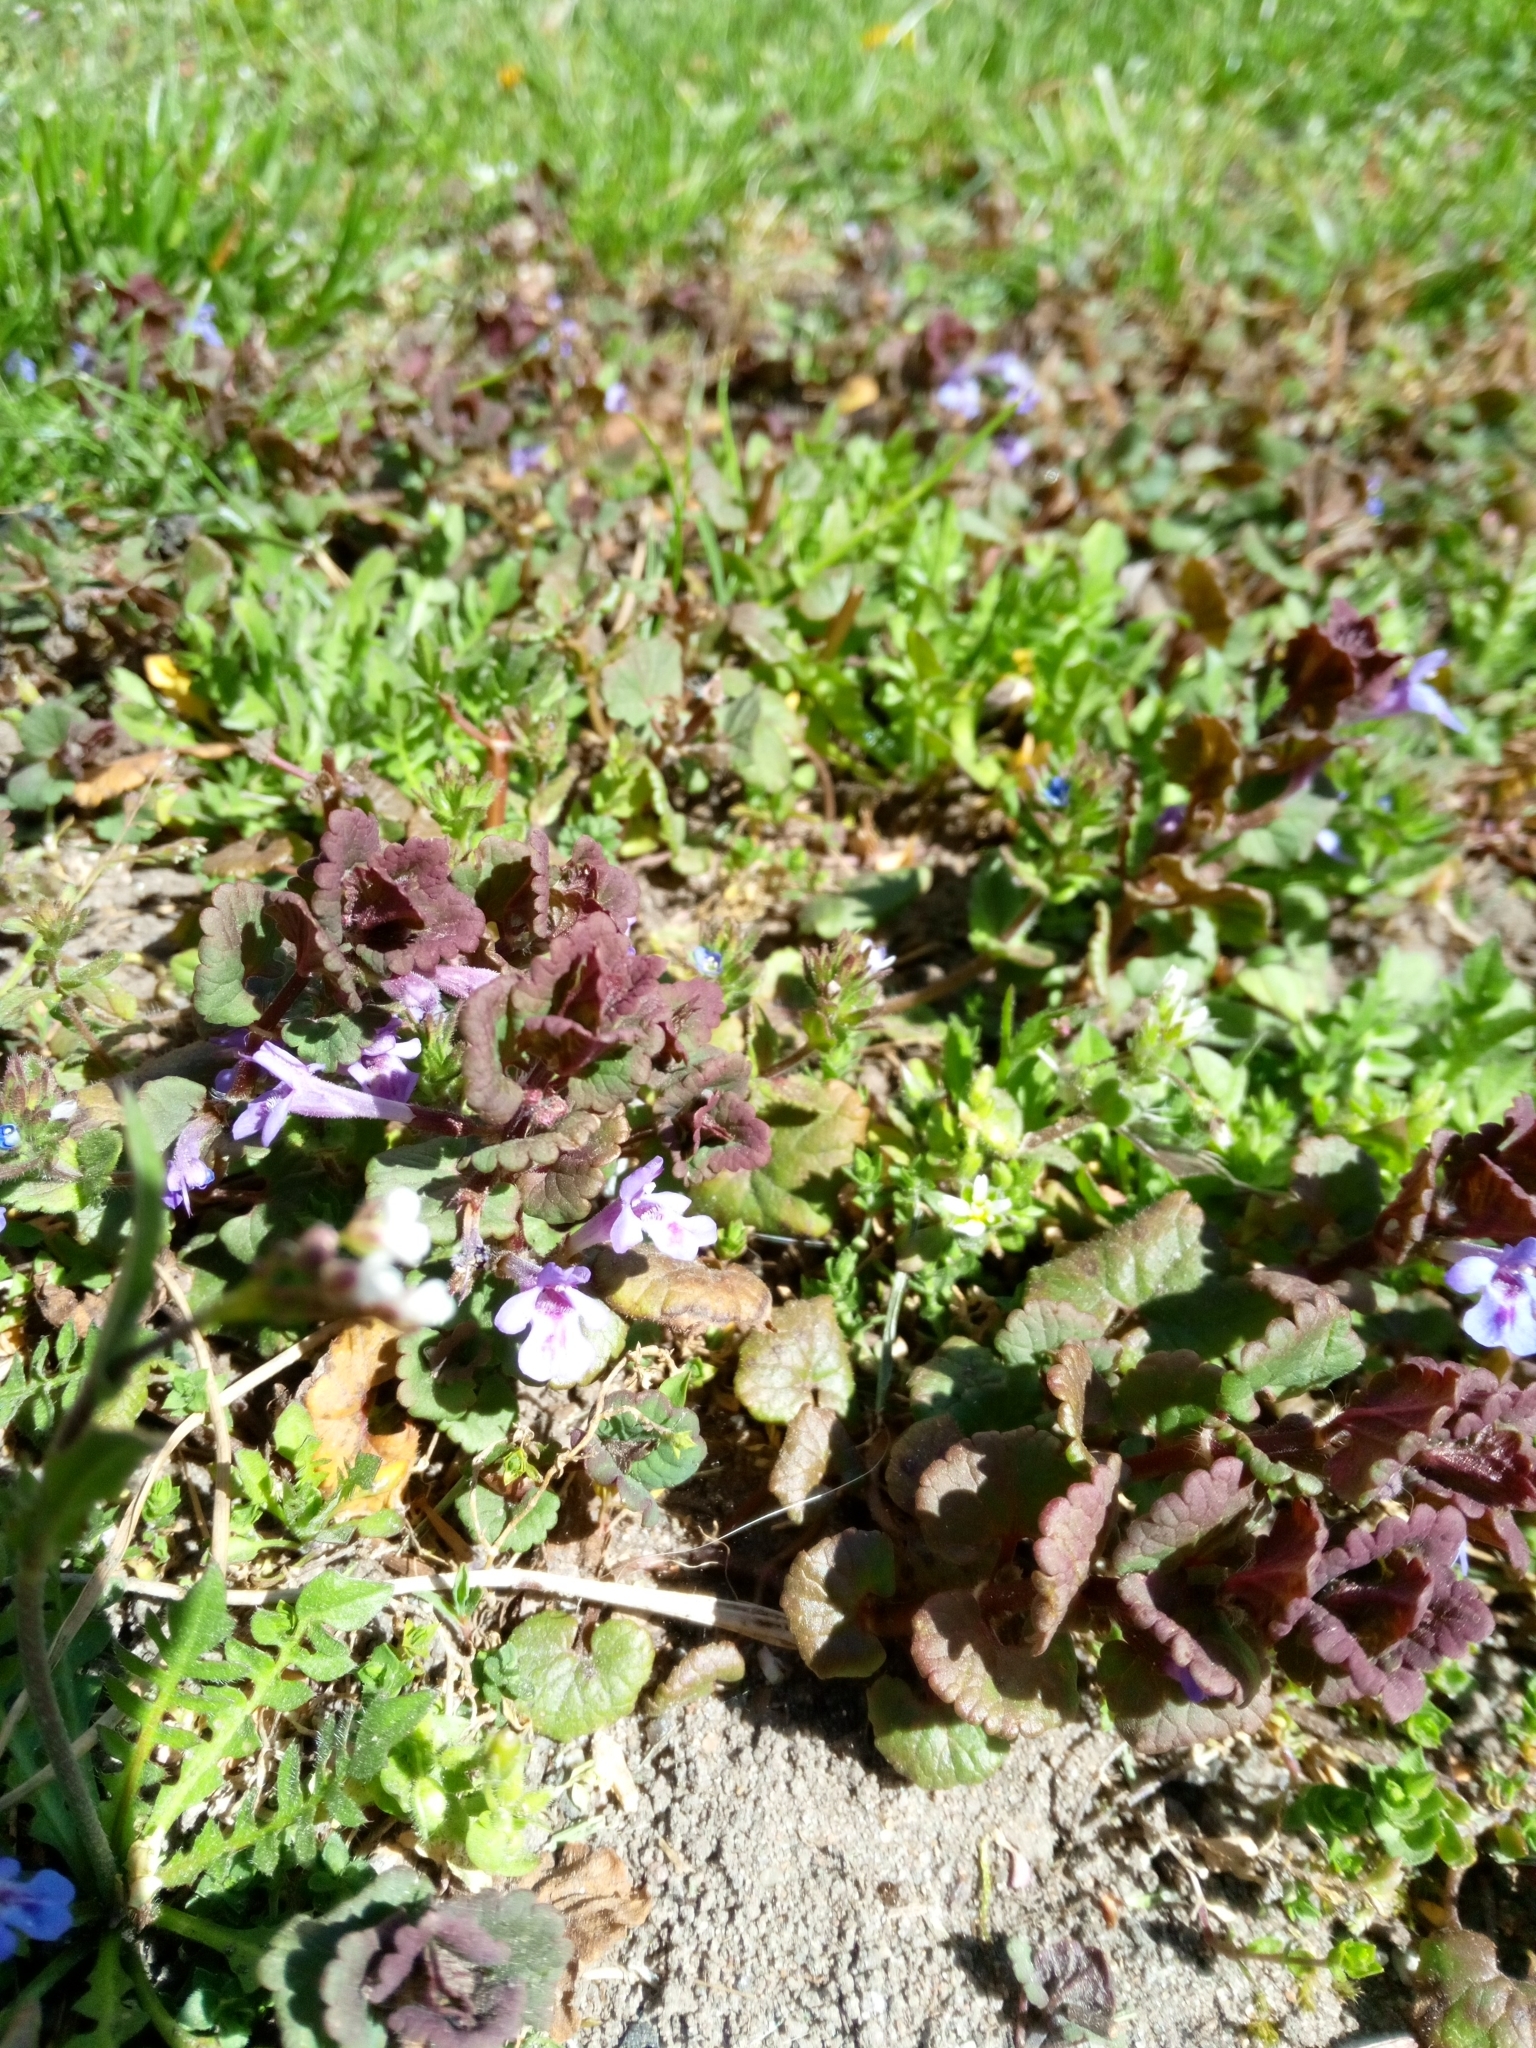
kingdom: Plantae
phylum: Tracheophyta
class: Magnoliopsida
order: Lamiales
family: Lamiaceae
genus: Glechoma
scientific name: Glechoma hederacea
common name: Ground ivy
